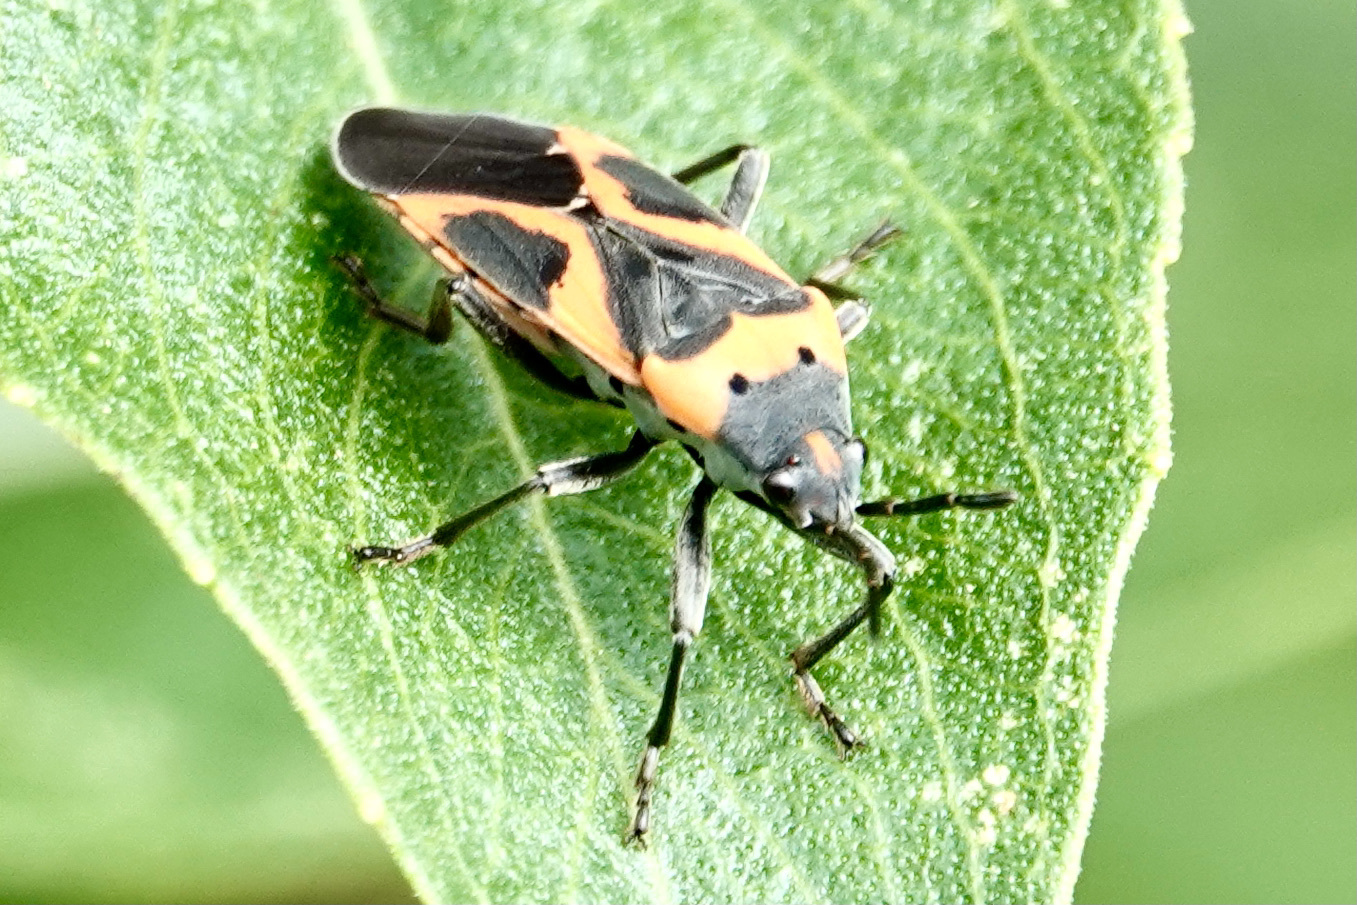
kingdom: Animalia
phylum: Arthropoda
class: Insecta
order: Hemiptera
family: Lygaeidae
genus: Lygaeus
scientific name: Lygaeus kalmii
